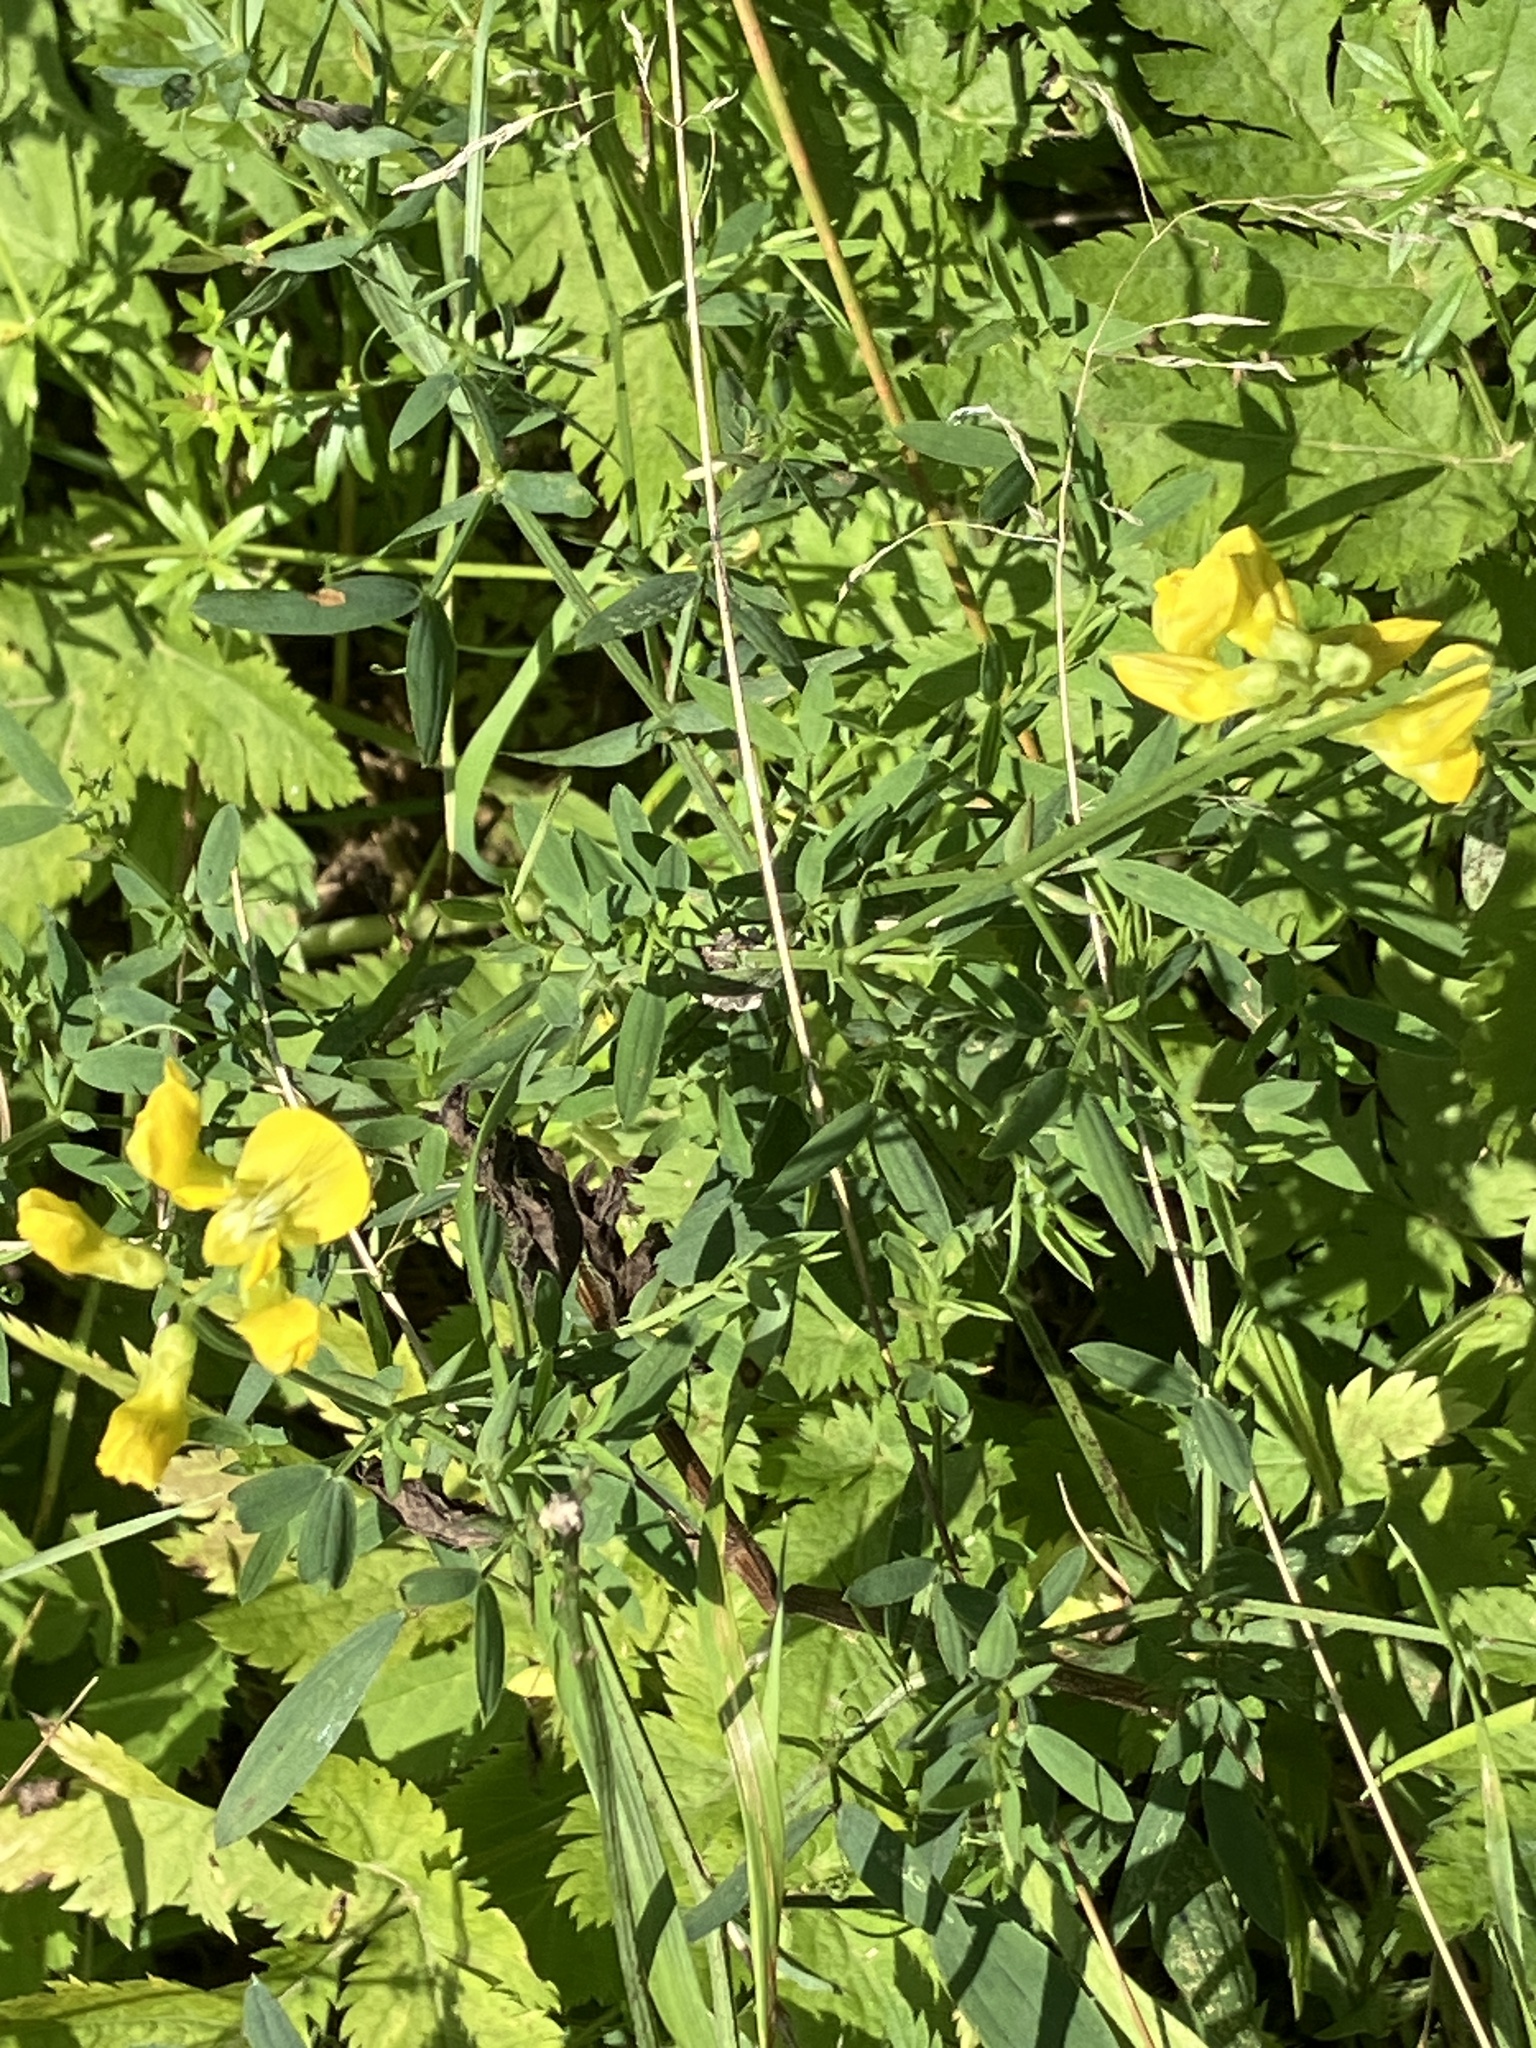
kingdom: Plantae
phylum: Tracheophyta
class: Magnoliopsida
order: Fabales
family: Fabaceae
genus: Lathyrus
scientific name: Lathyrus pratensis
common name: Meadow vetchling
